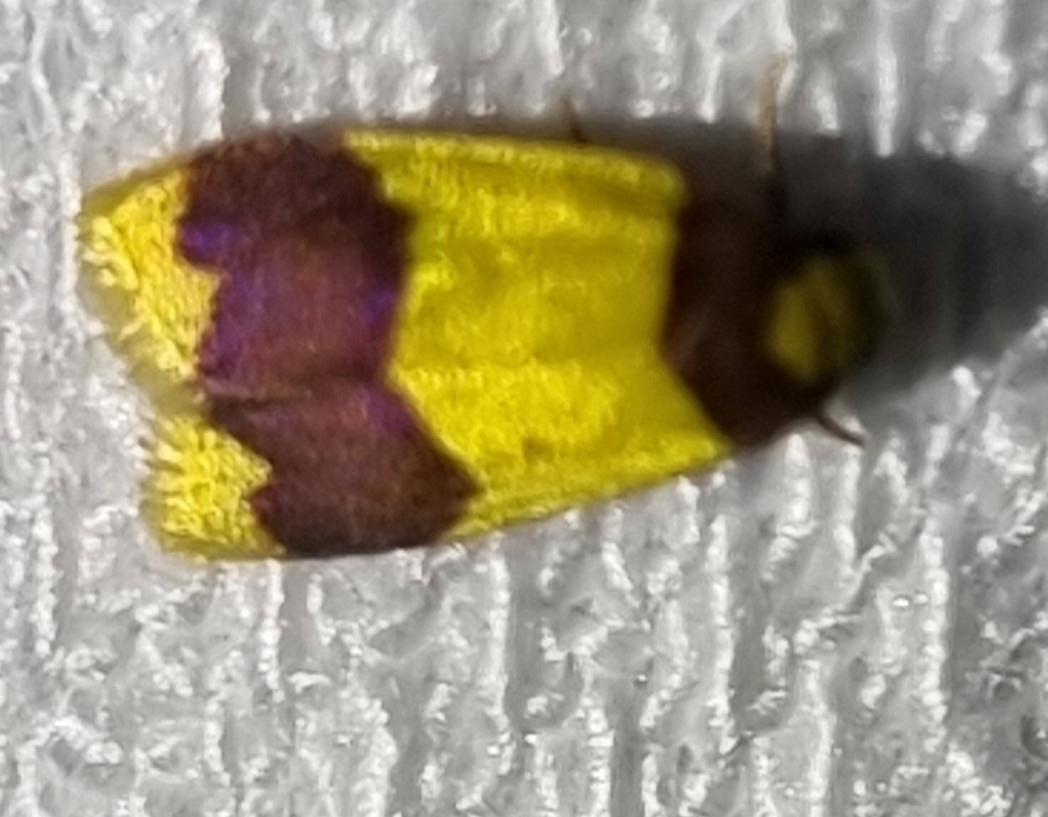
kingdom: Animalia
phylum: Arthropoda
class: Insecta
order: Lepidoptera
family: Erebidae
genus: Heterallactis
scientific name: Heterallactis microchrysa
